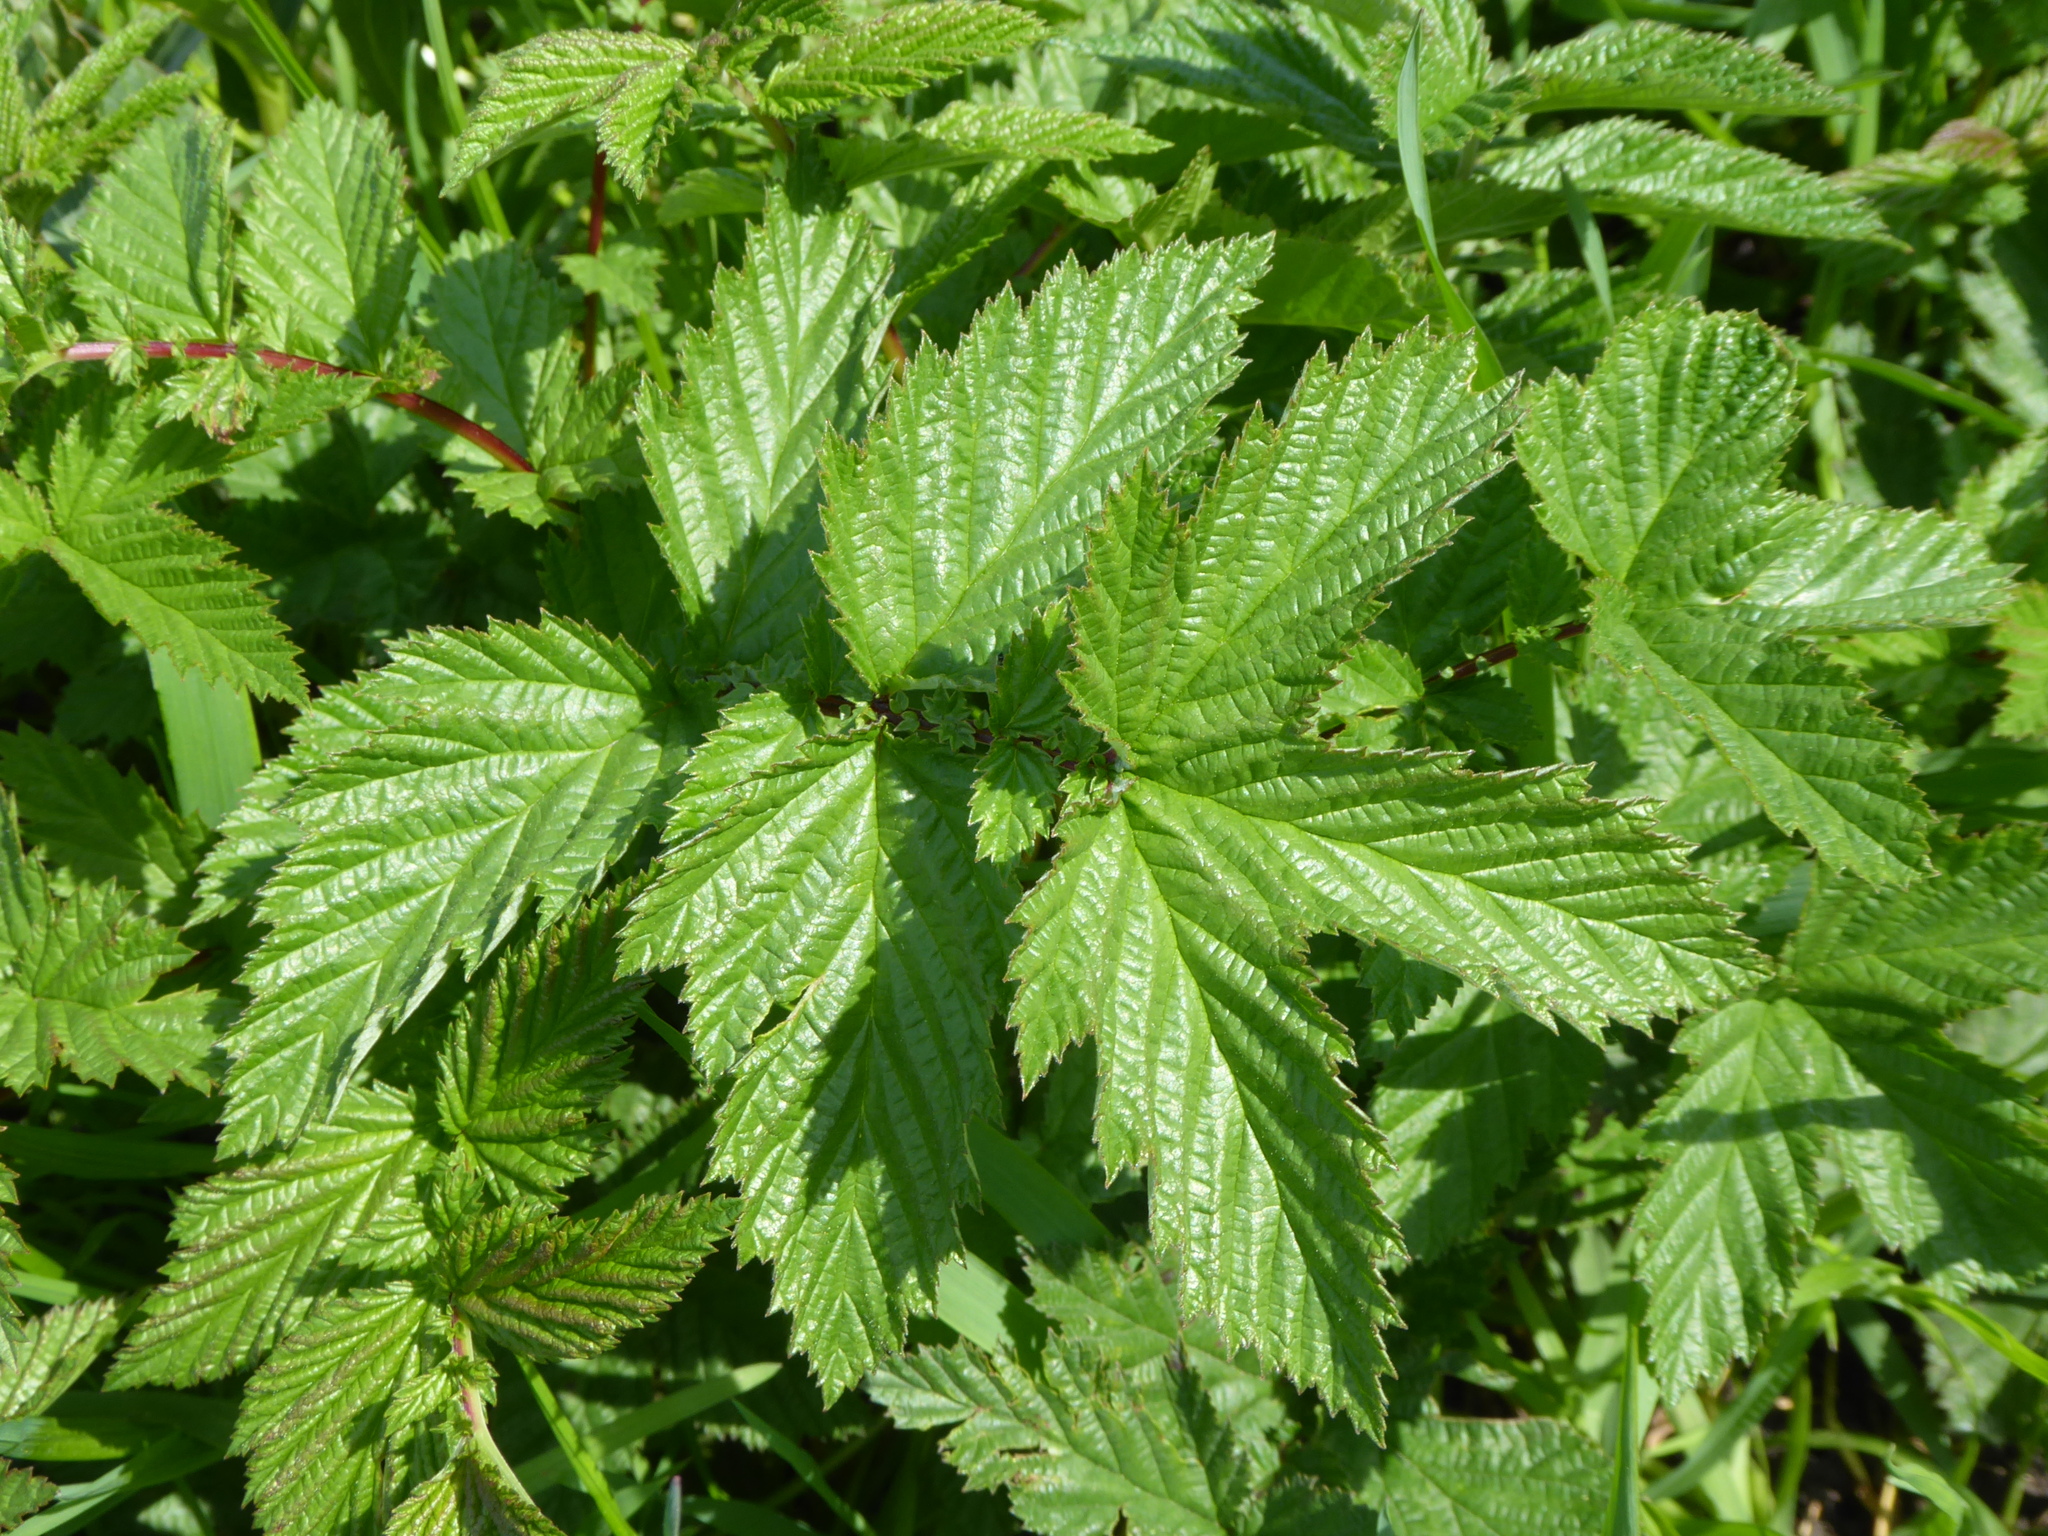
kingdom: Plantae
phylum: Tracheophyta
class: Magnoliopsida
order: Rosales
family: Rosaceae
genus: Filipendula
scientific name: Filipendula ulmaria
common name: Meadowsweet
